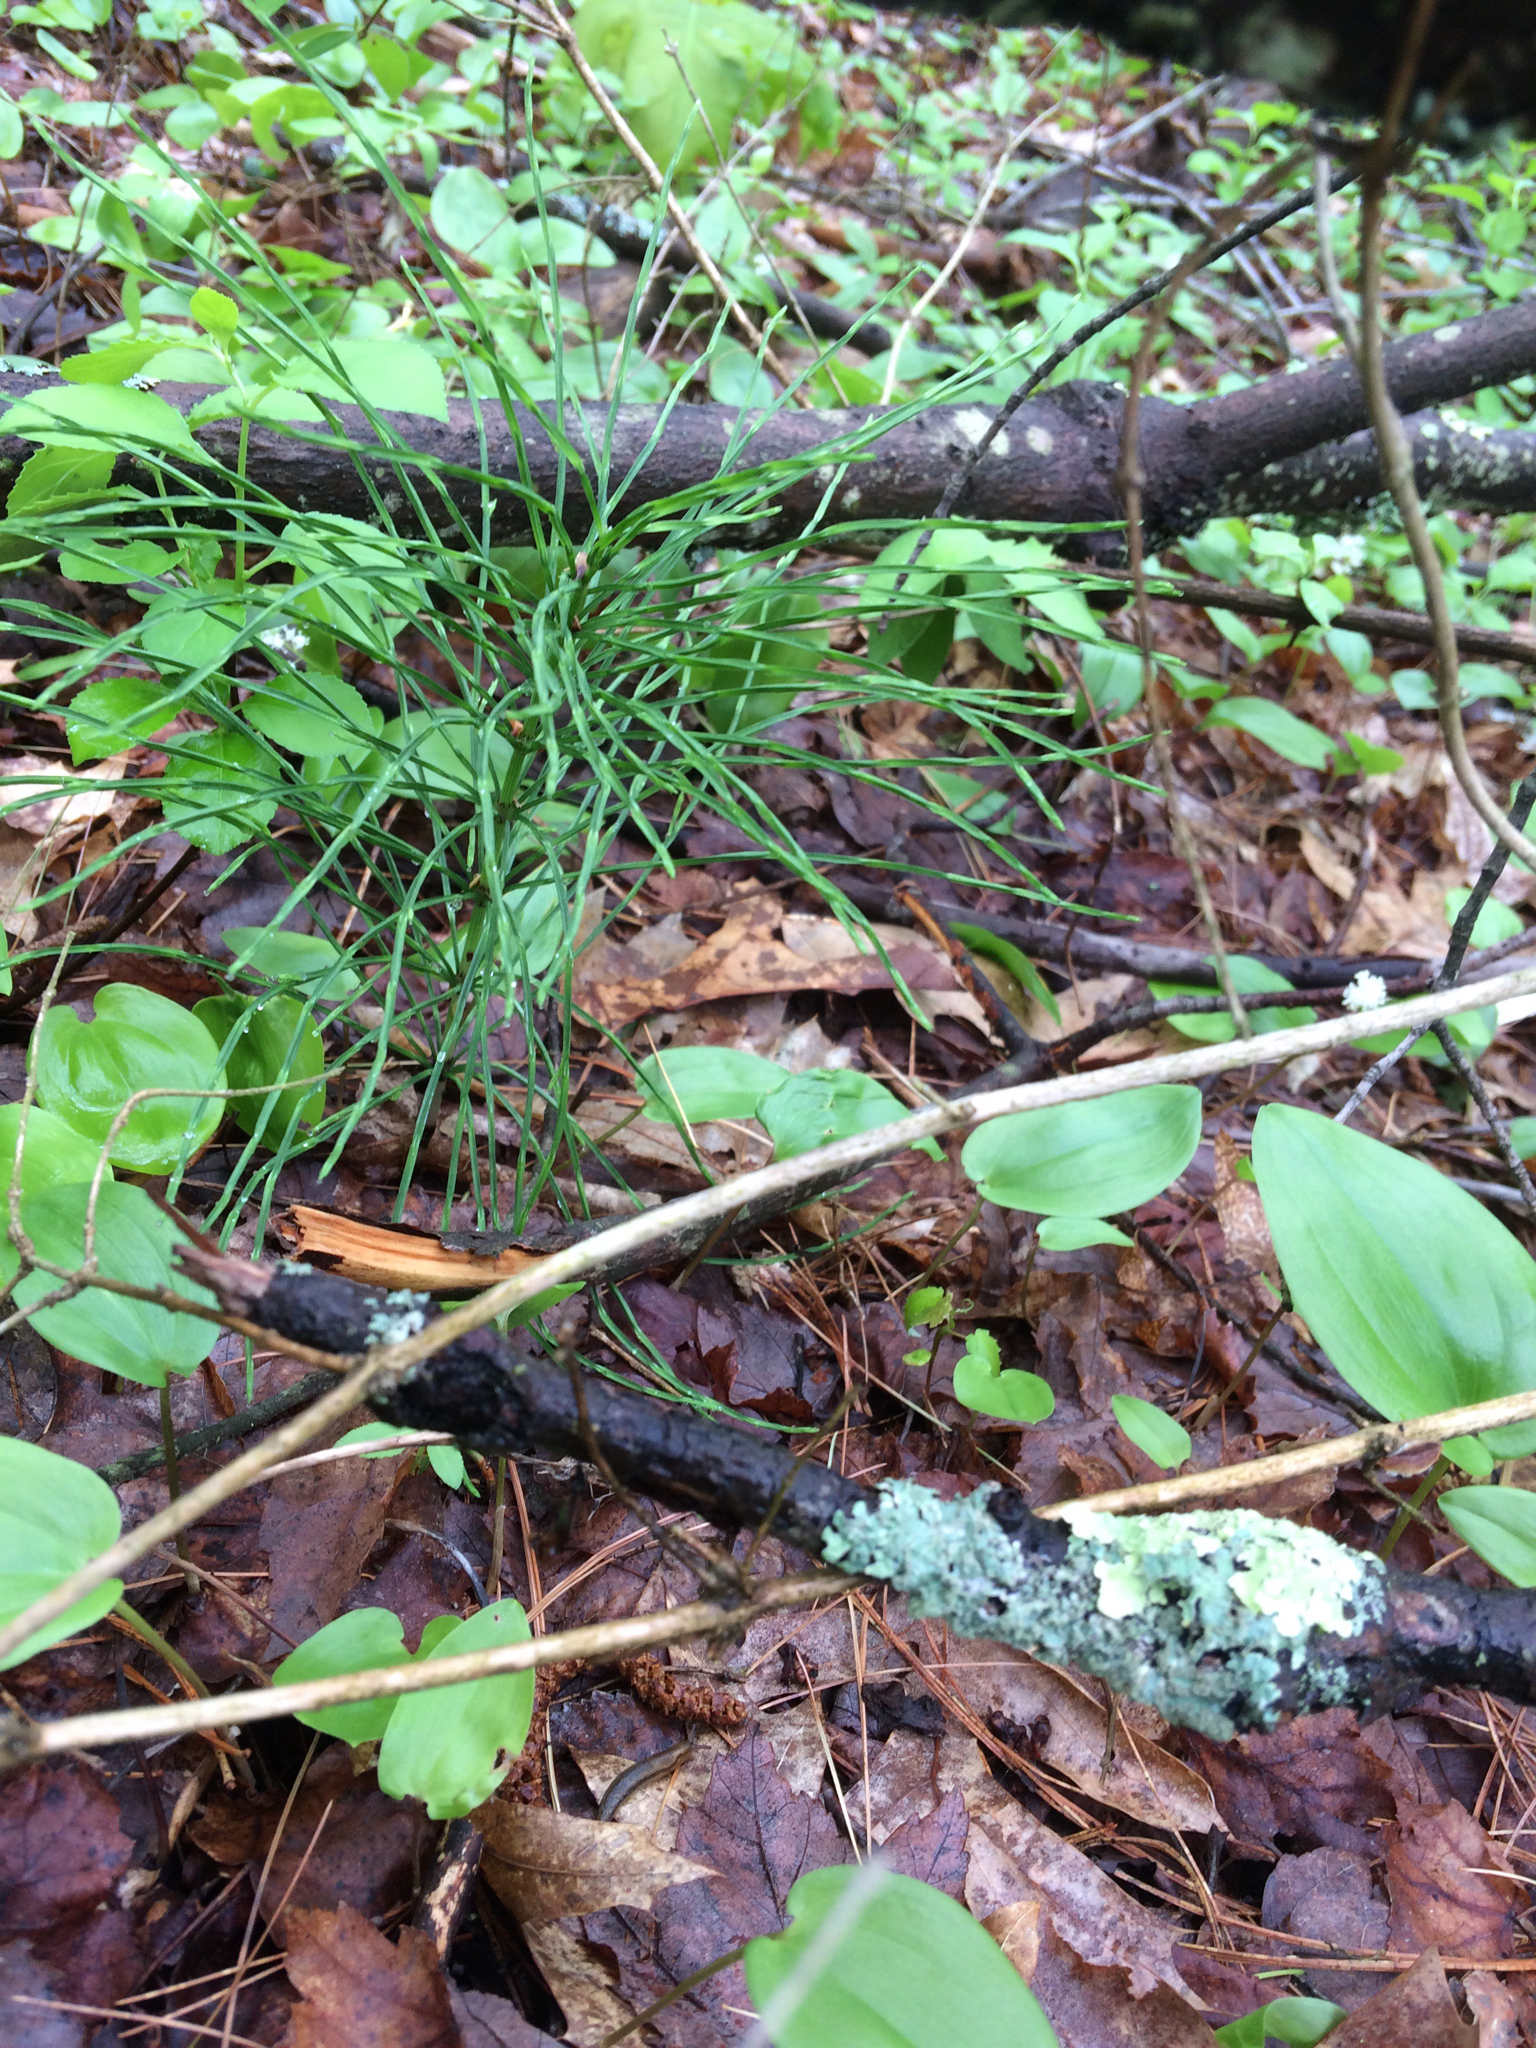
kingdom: Plantae
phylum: Tracheophyta
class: Polypodiopsida
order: Equisetales
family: Equisetaceae
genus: Equisetum
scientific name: Equisetum arvense
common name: Field horsetail
